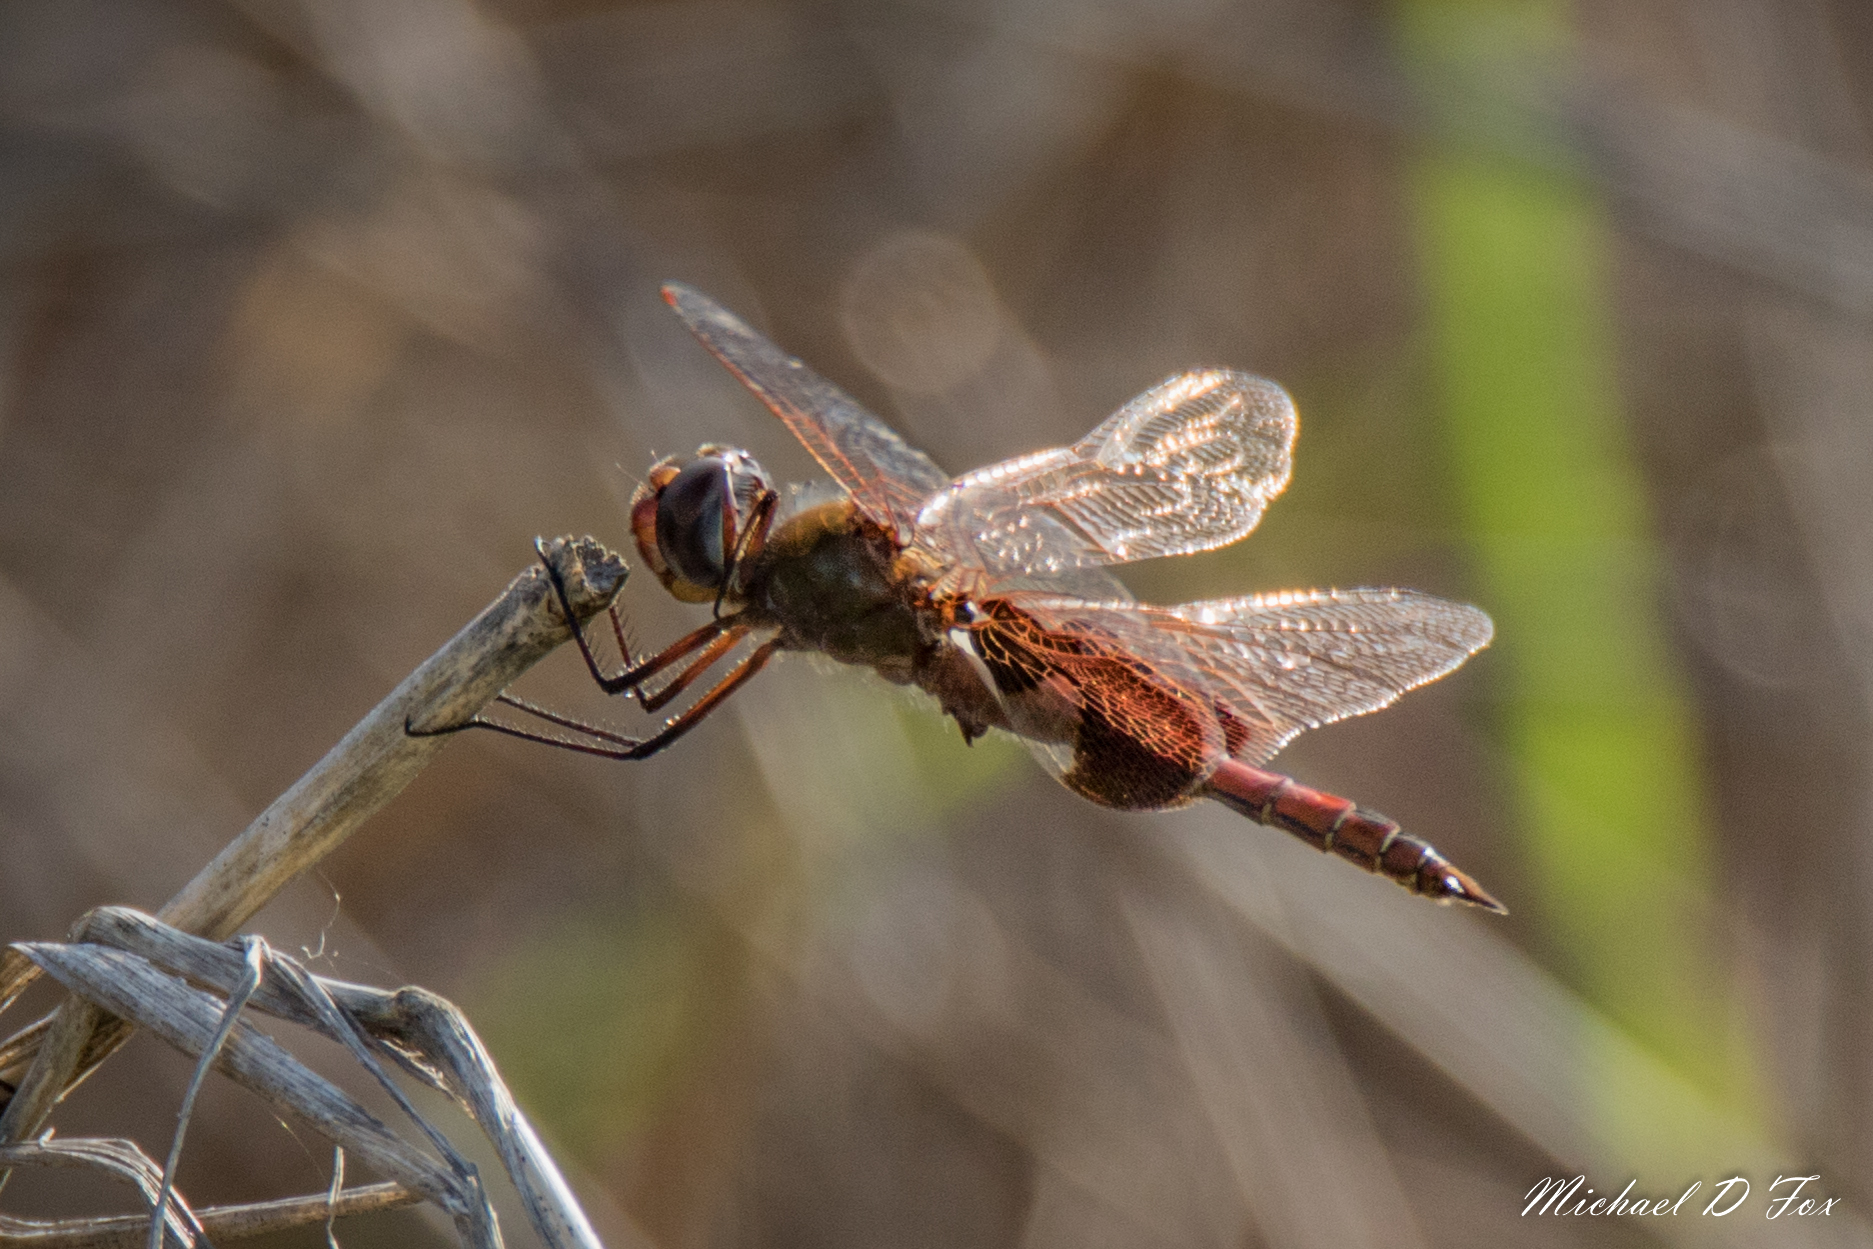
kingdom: Animalia
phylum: Arthropoda
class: Insecta
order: Odonata
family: Libellulidae
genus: Tramea
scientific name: Tramea onusta
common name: Red saddlebags
